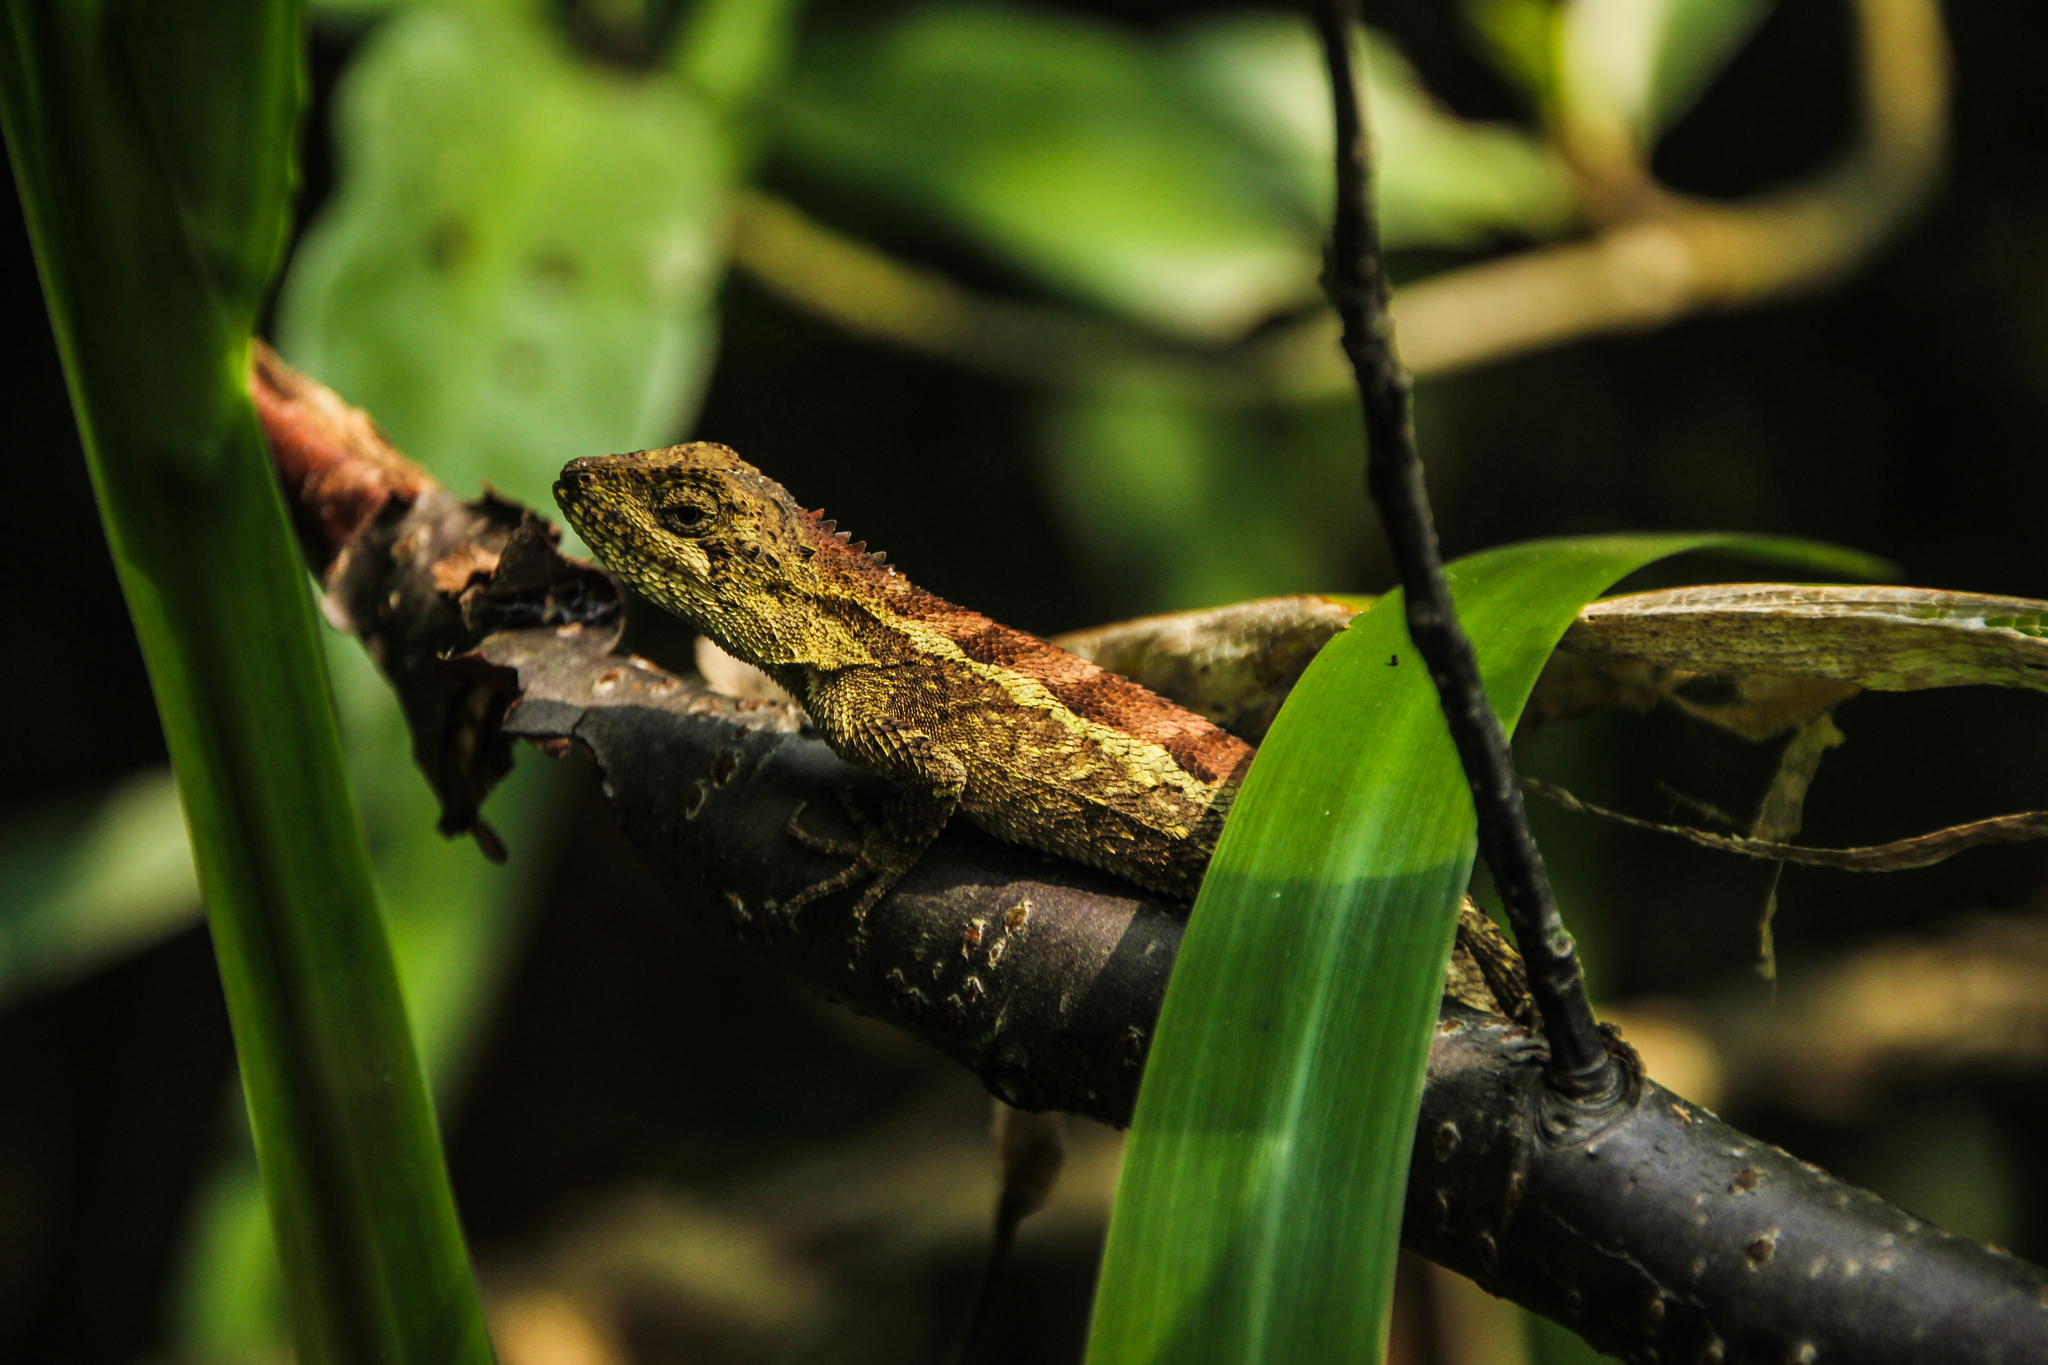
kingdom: Animalia
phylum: Chordata
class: Squamata
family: Agamidae
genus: Diploderma
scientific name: Diploderma swinhonis
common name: Taiwan japalure
